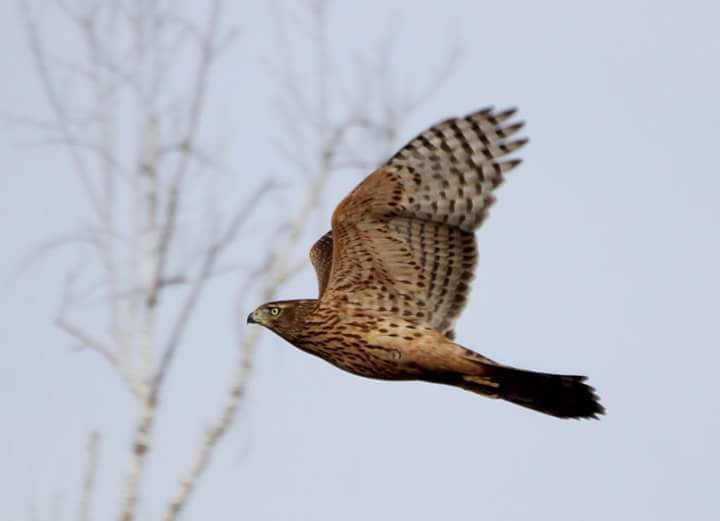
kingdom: Animalia
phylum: Chordata
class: Aves
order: Accipitriformes
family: Accipitridae
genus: Accipiter
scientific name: Accipiter gentilis
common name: Northern goshawk
